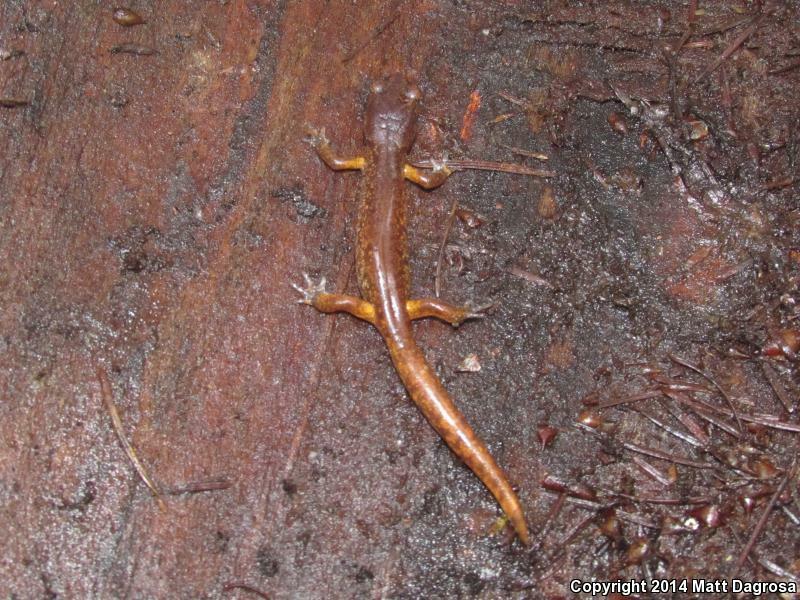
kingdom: Animalia
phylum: Chordata
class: Amphibia
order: Caudata
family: Plethodontidae
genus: Ensatina
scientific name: Ensatina eschscholtzii
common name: Ensatina
